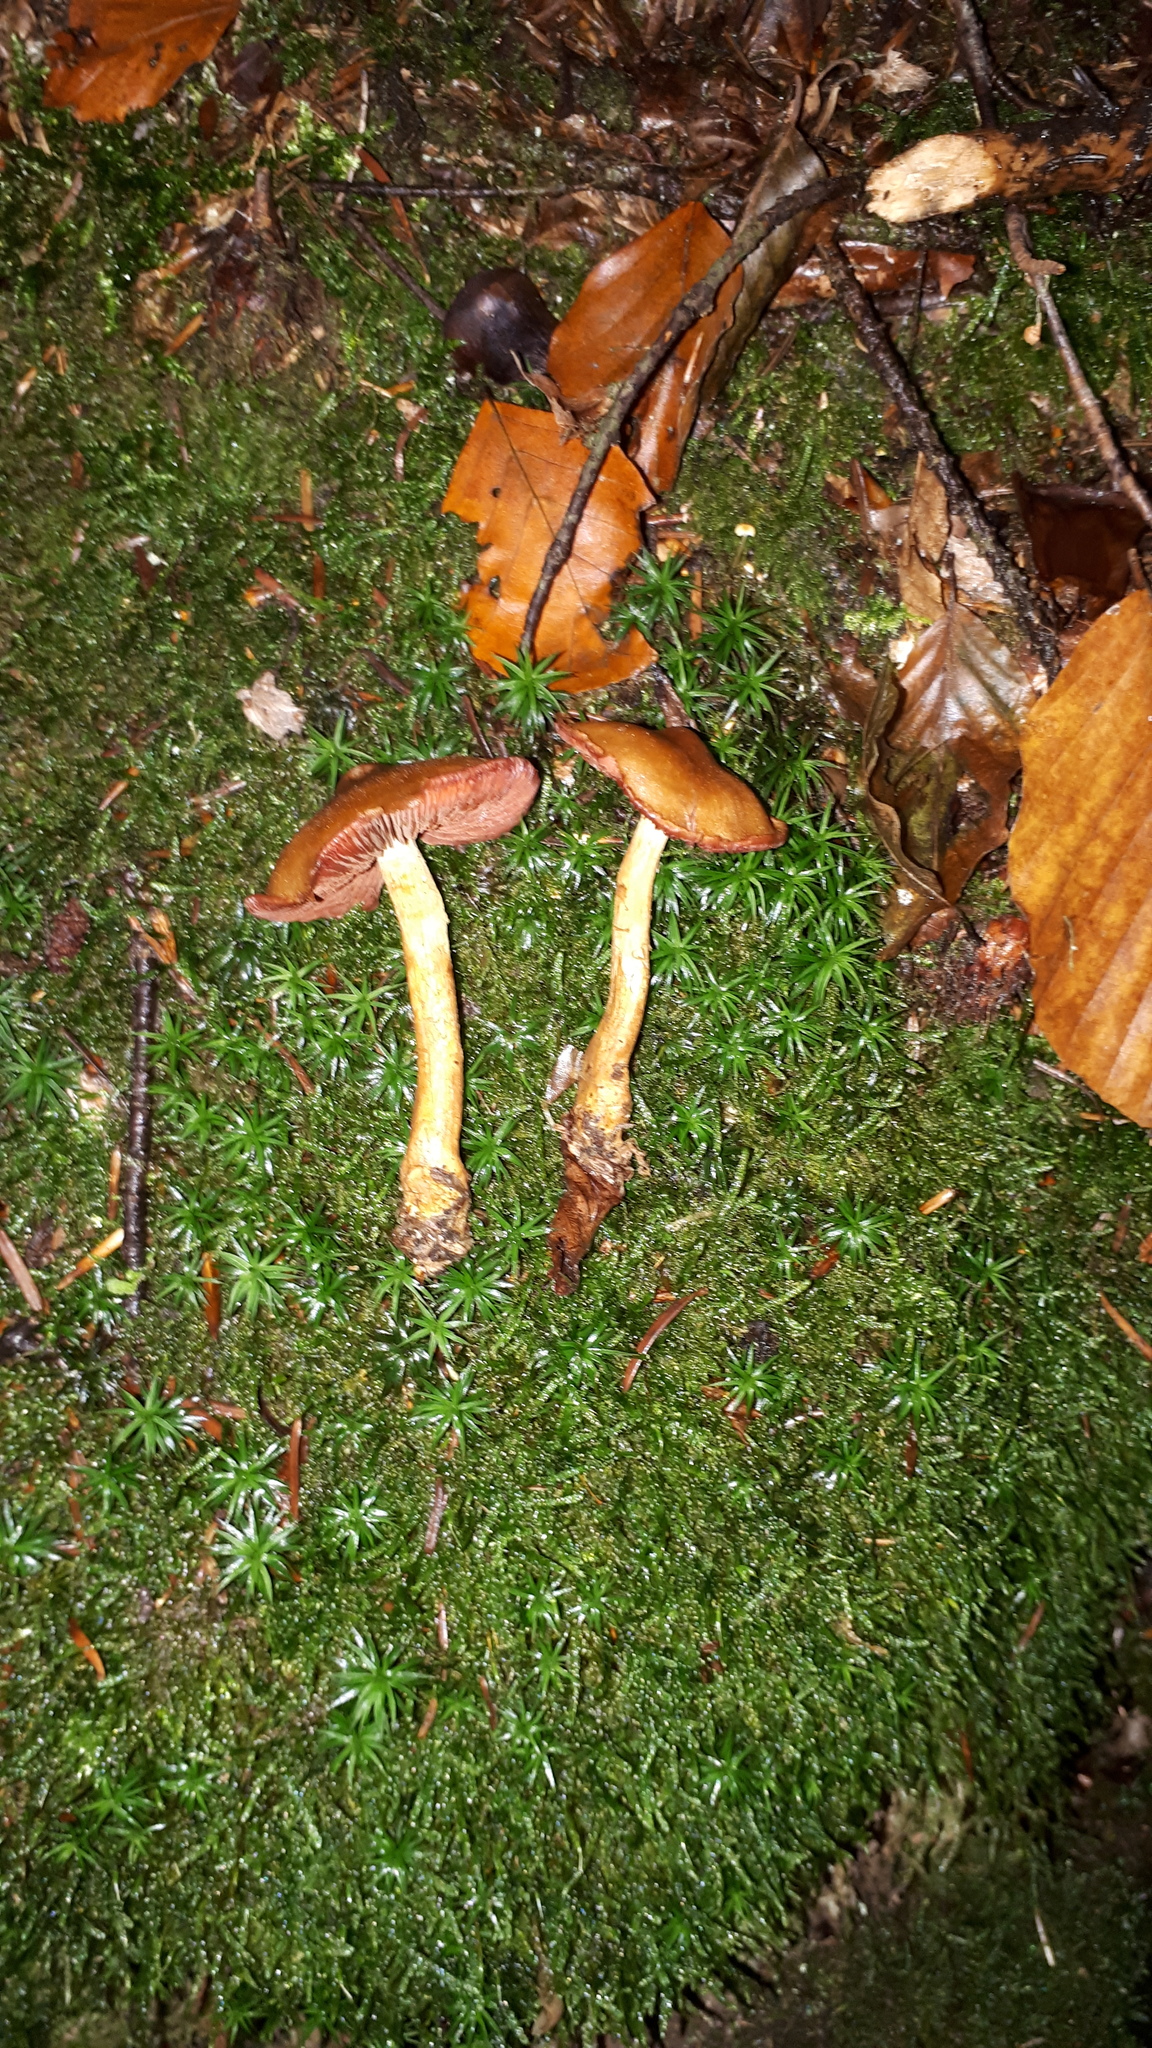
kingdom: Fungi
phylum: Basidiomycota
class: Agaricomycetes
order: Agaricales
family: Cortinariaceae
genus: Cortinarius
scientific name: Cortinarius semisanguineus
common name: Surprise webcap
